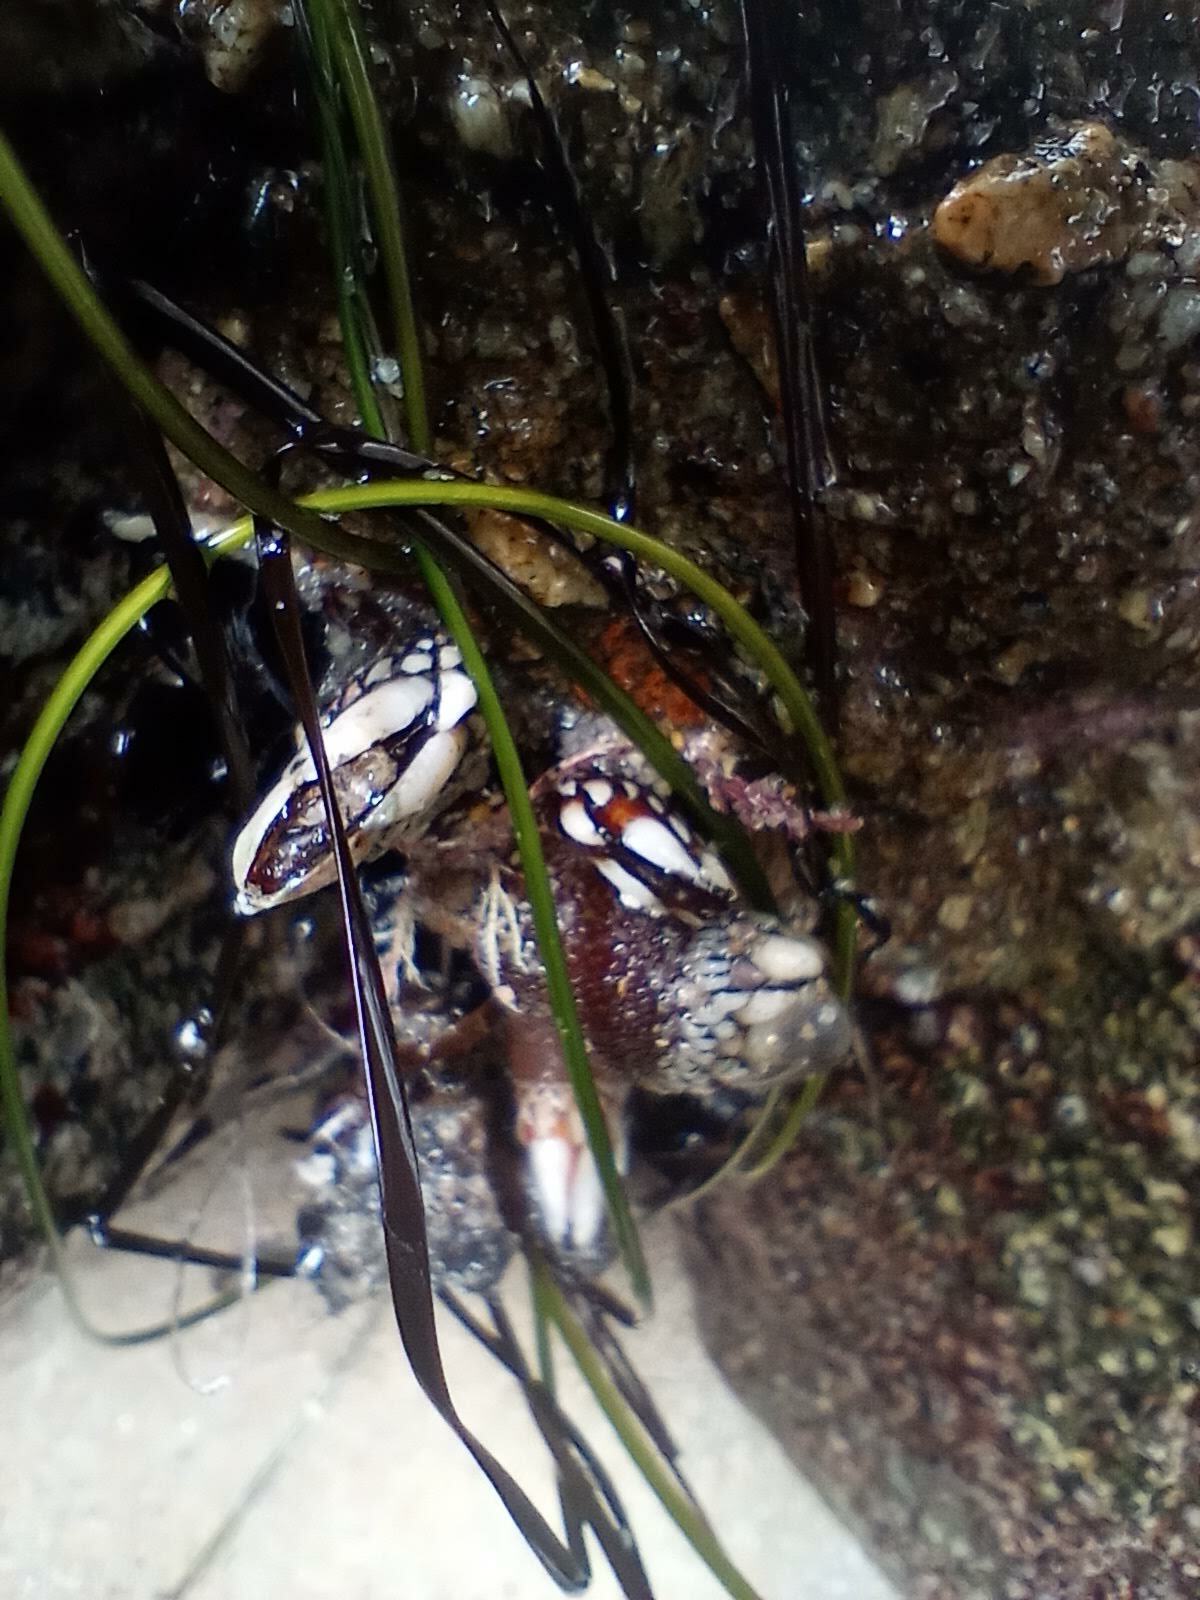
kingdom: Animalia
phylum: Arthropoda
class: Maxillopoda
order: Pedunculata
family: Pollicipedidae
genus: Pollicipes
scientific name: Pollicipes polymerus
